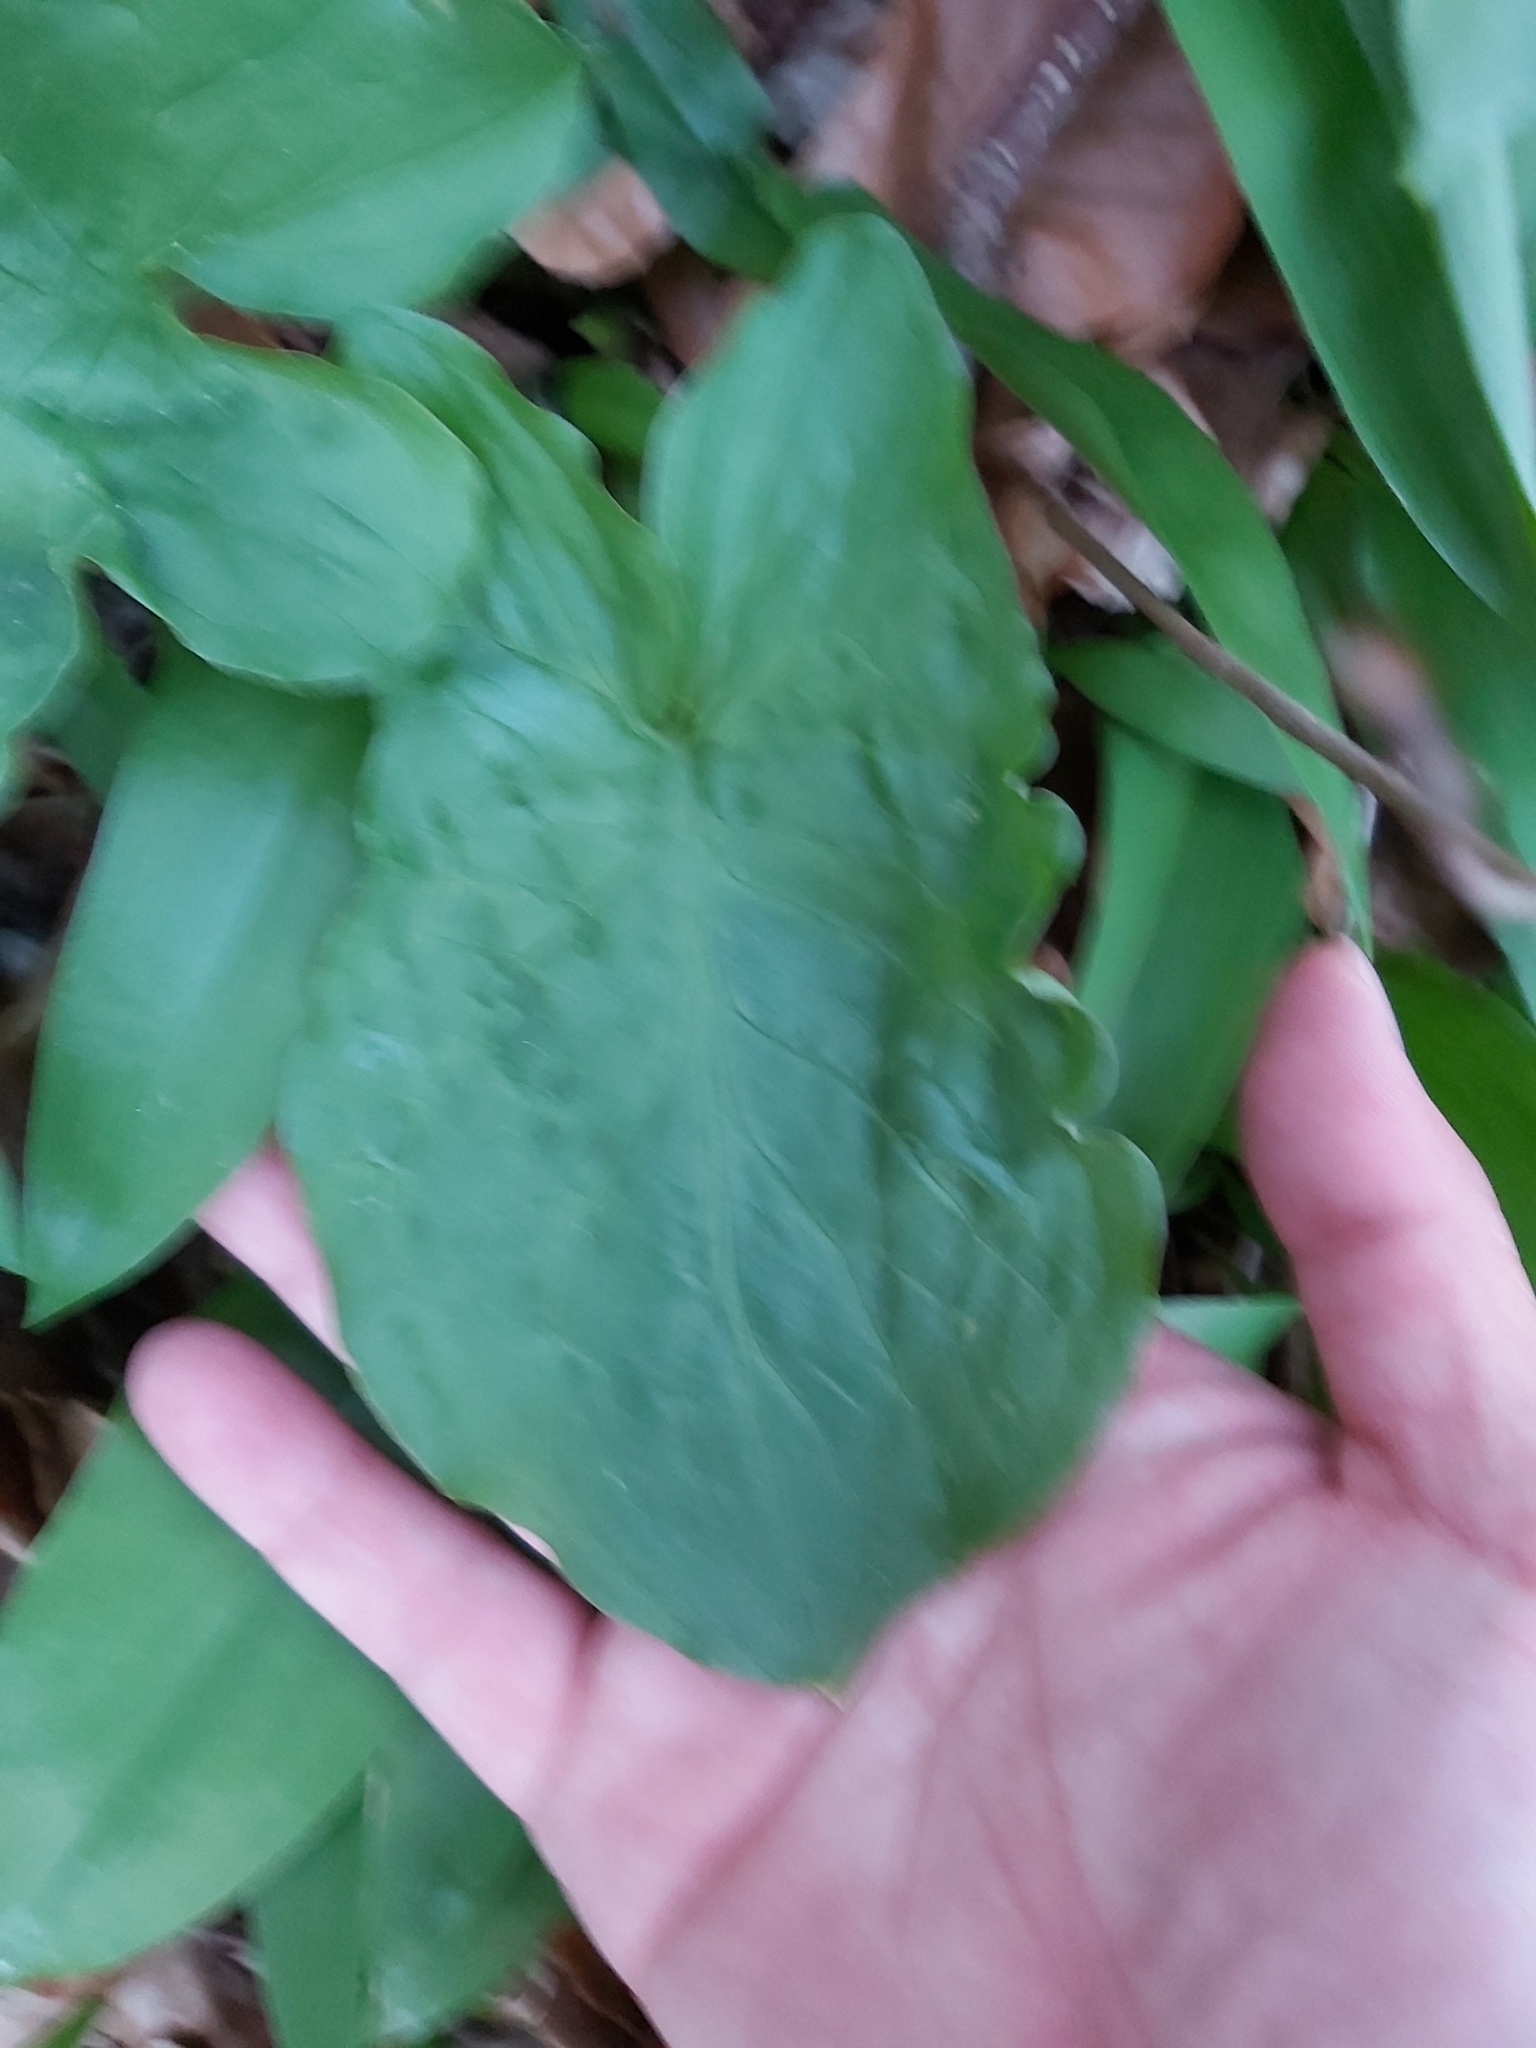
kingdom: Plantae
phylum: Tracheophyta
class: Liliopsida
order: Alismatales
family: Araceae
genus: Arum
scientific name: Arum maculatum
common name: Lords-and-ladies
